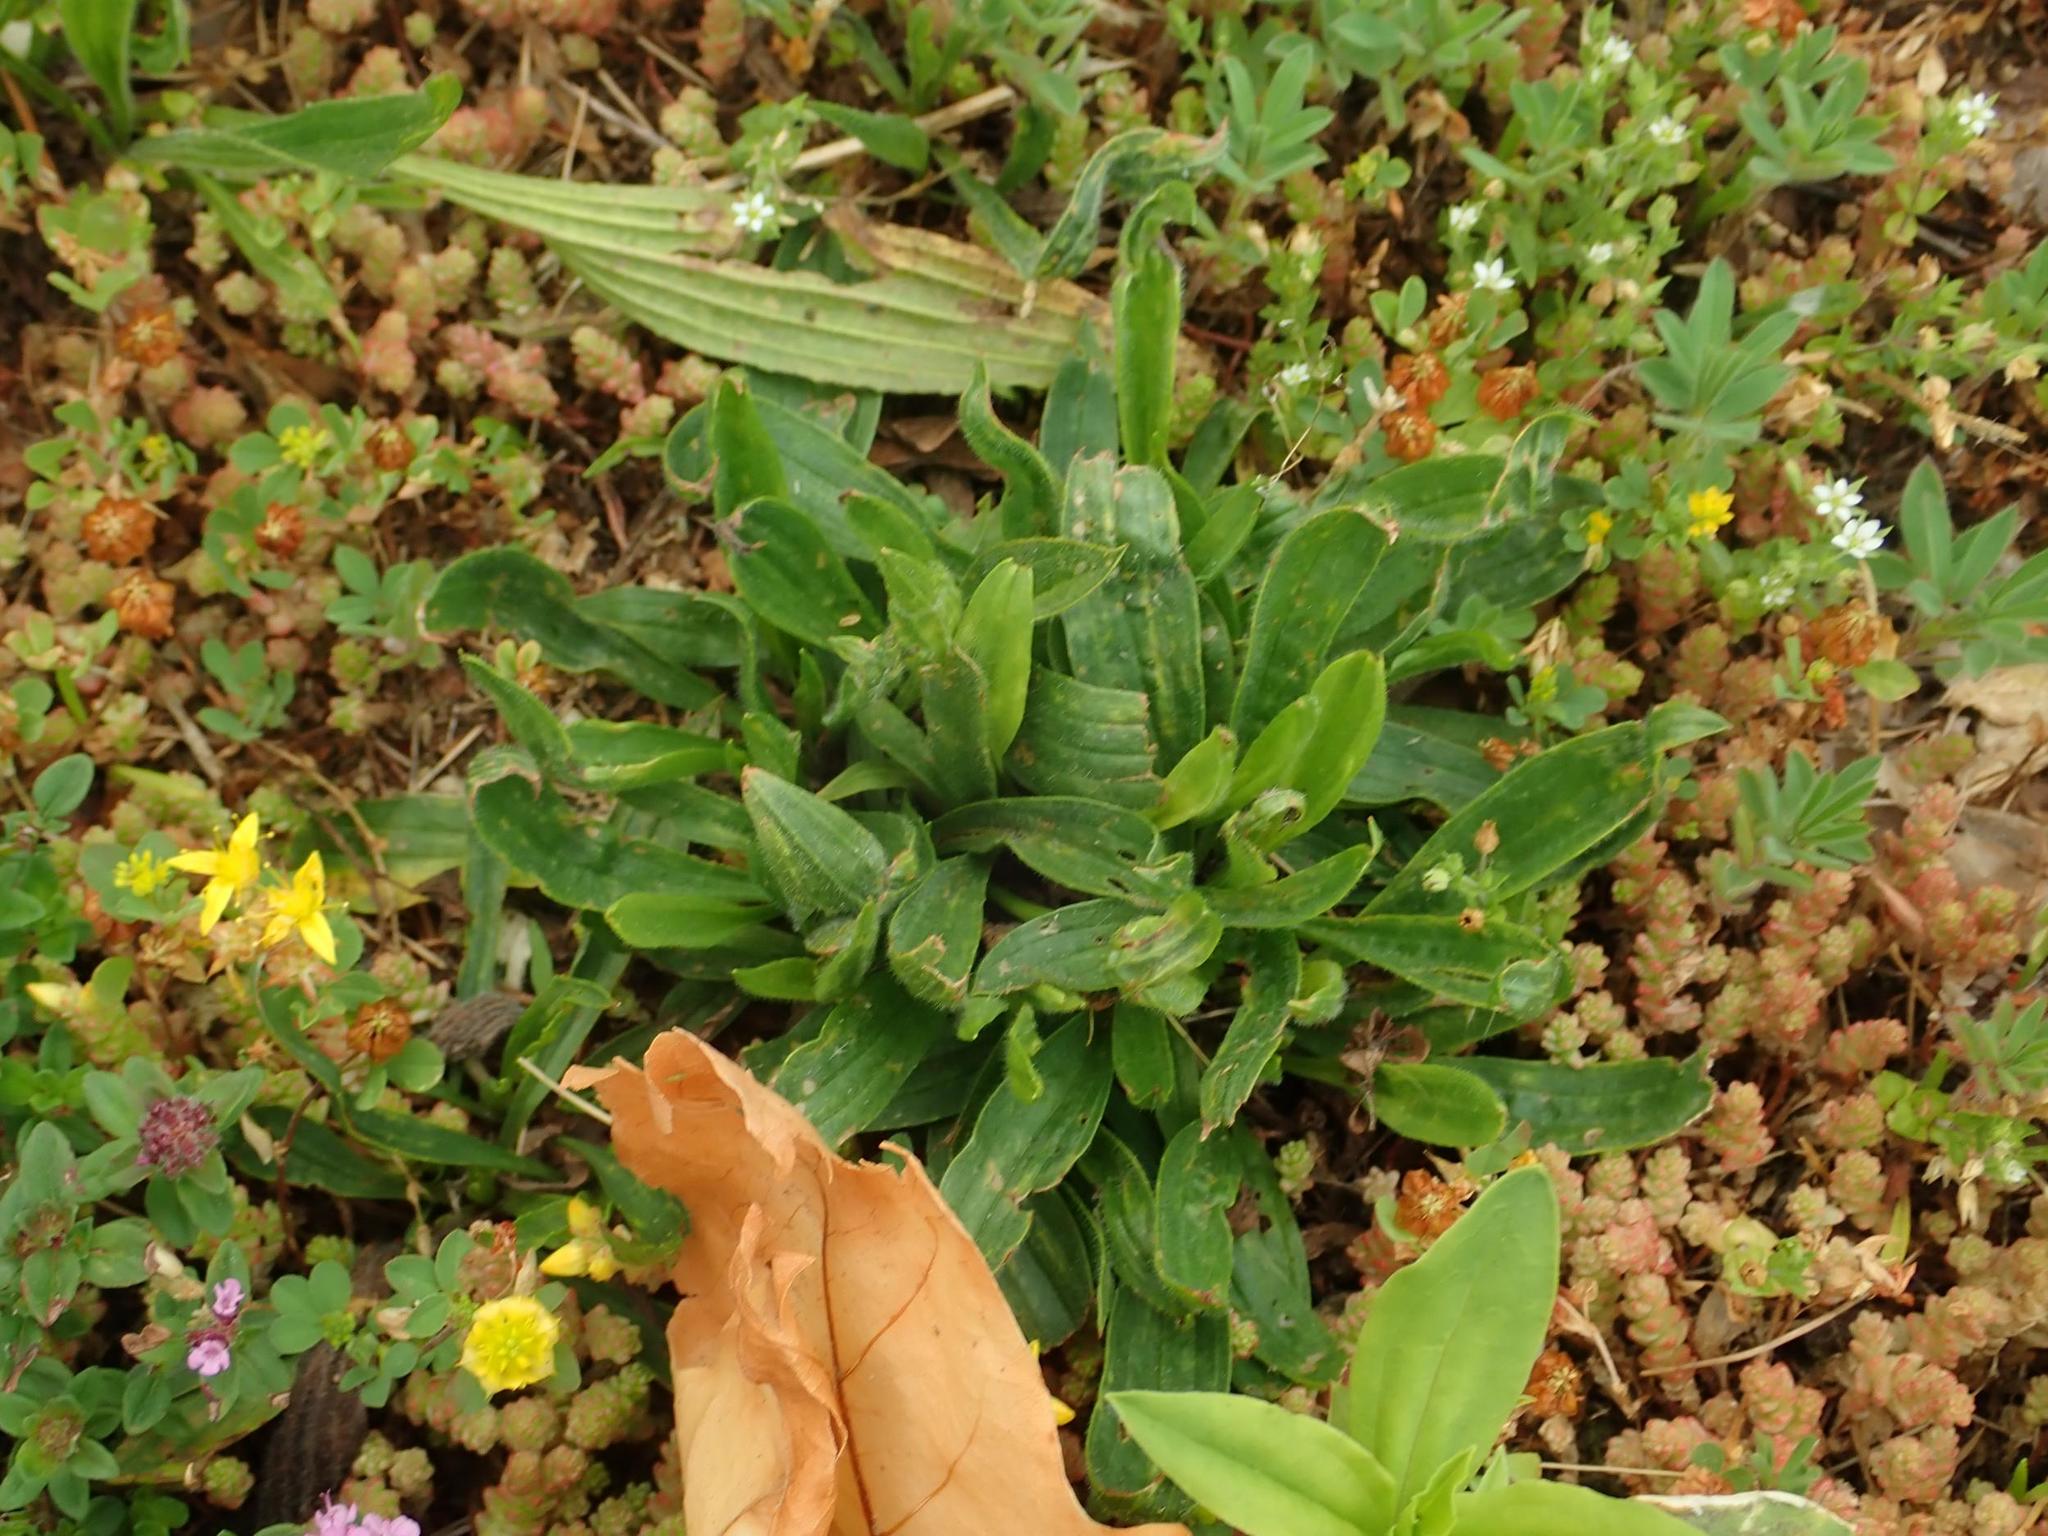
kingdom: Plantae
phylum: Tracheophyta
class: Magnoliopsida
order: Lamiales
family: Plantaginaceae
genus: Plantago
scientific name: Plantago lanceolata
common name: Ribwort plantain
